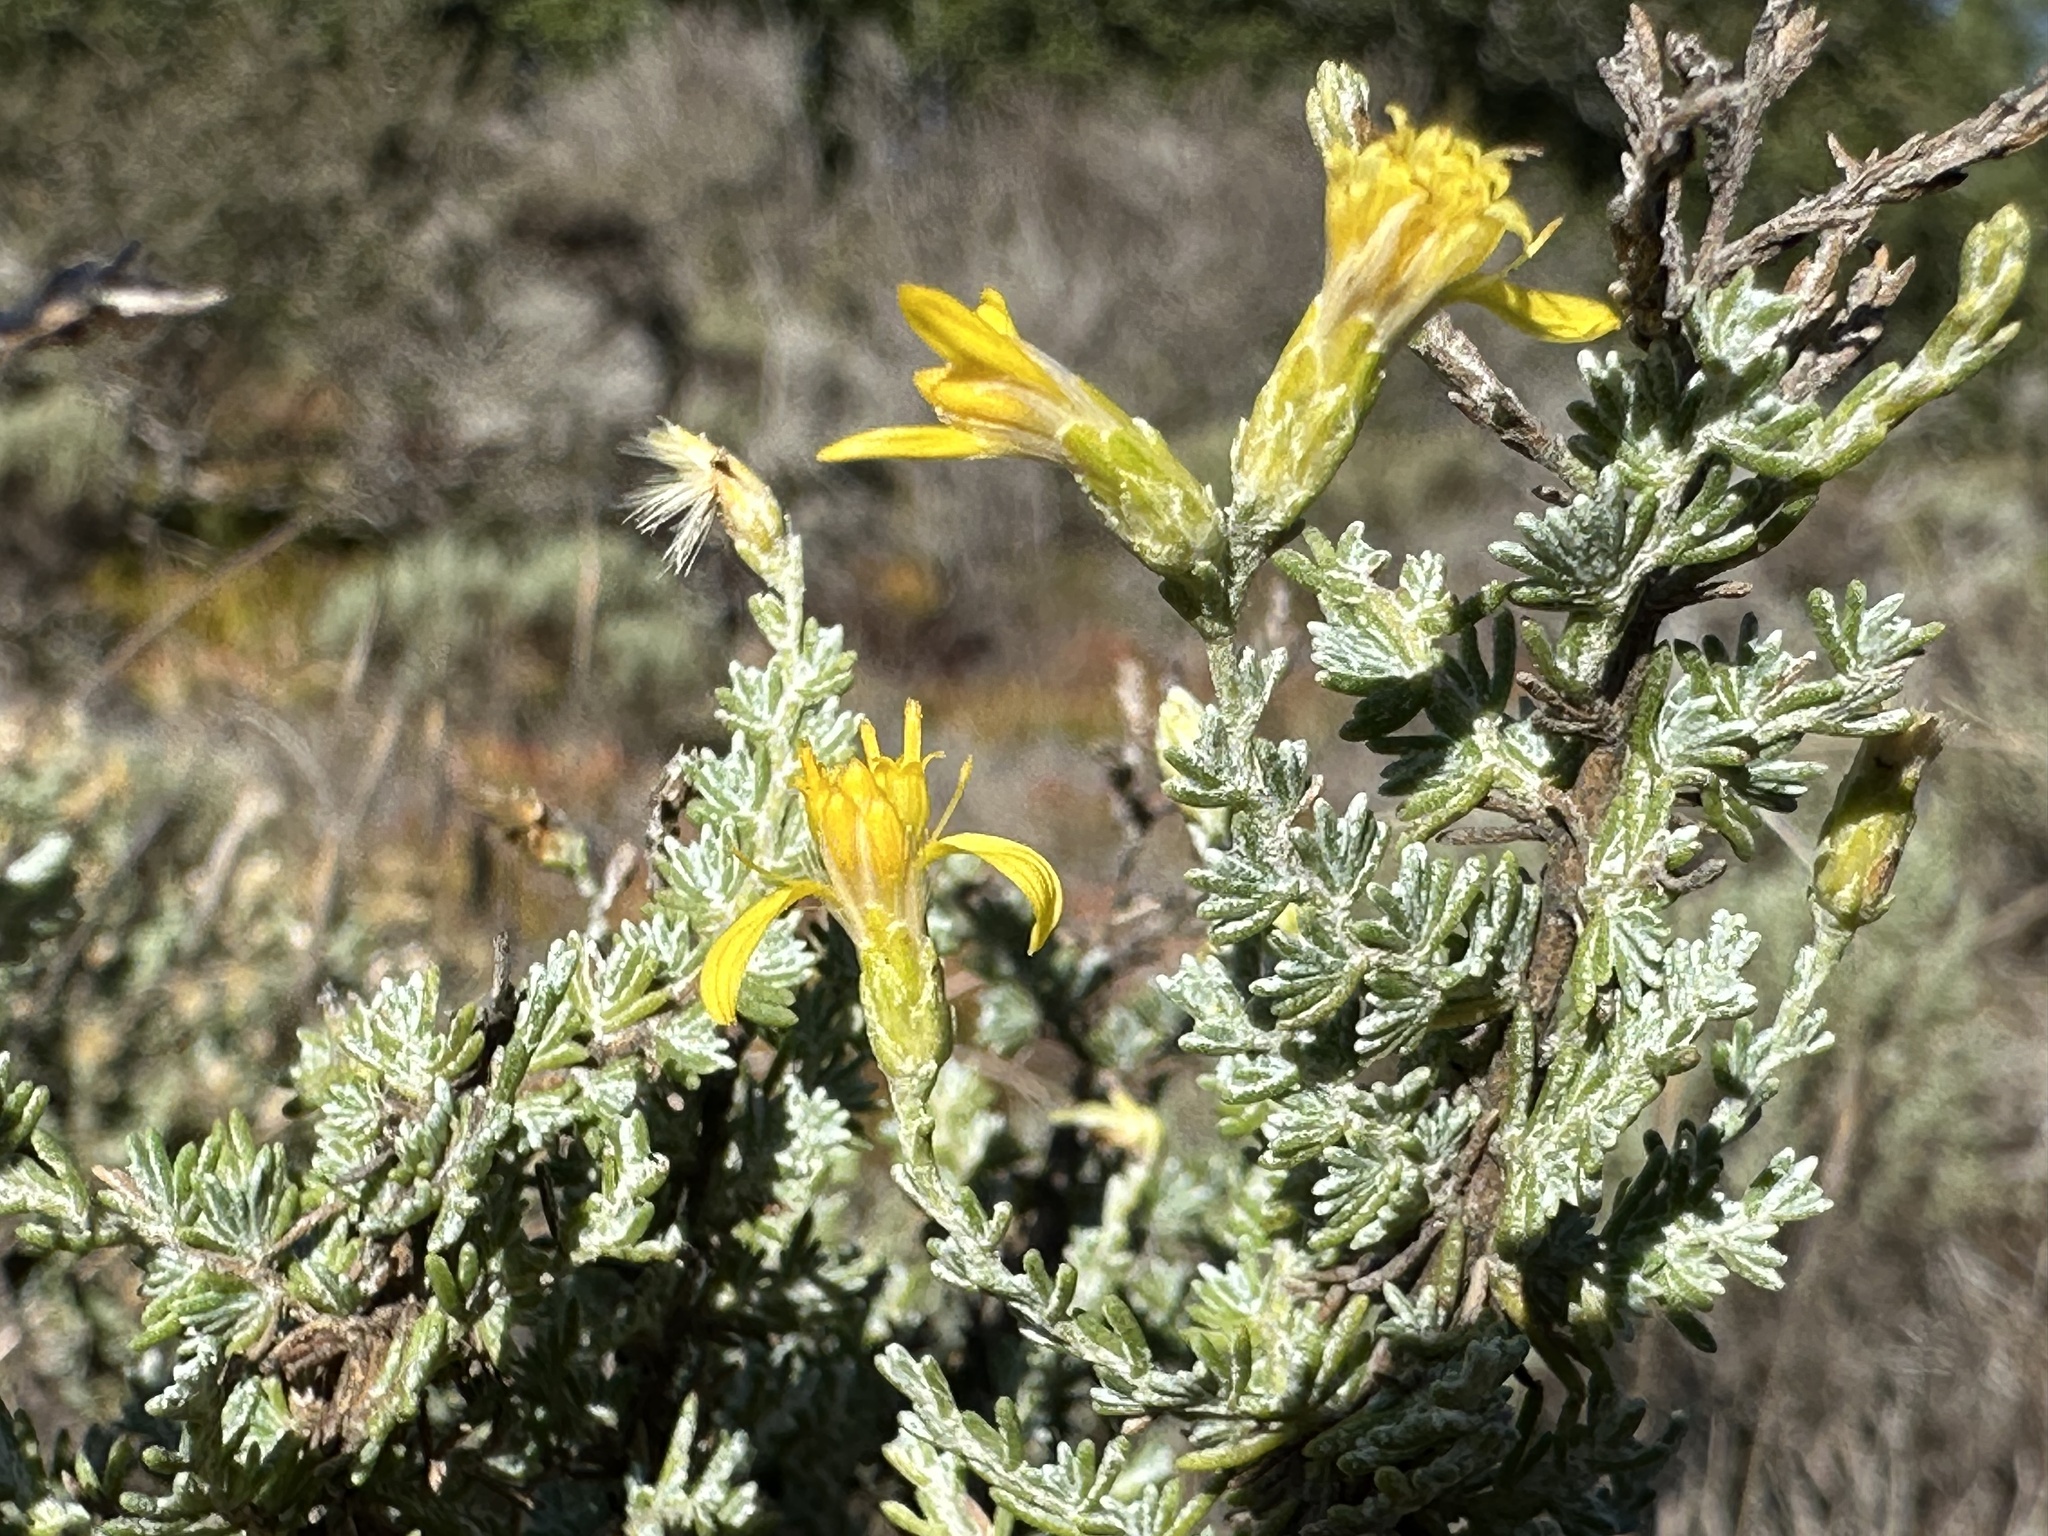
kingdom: Plantae
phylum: Tracheophyta
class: Magnoliopsida
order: Asterales
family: Asteraceae
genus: Ericameria
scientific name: Ericameria ericoides
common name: California goldenbush
